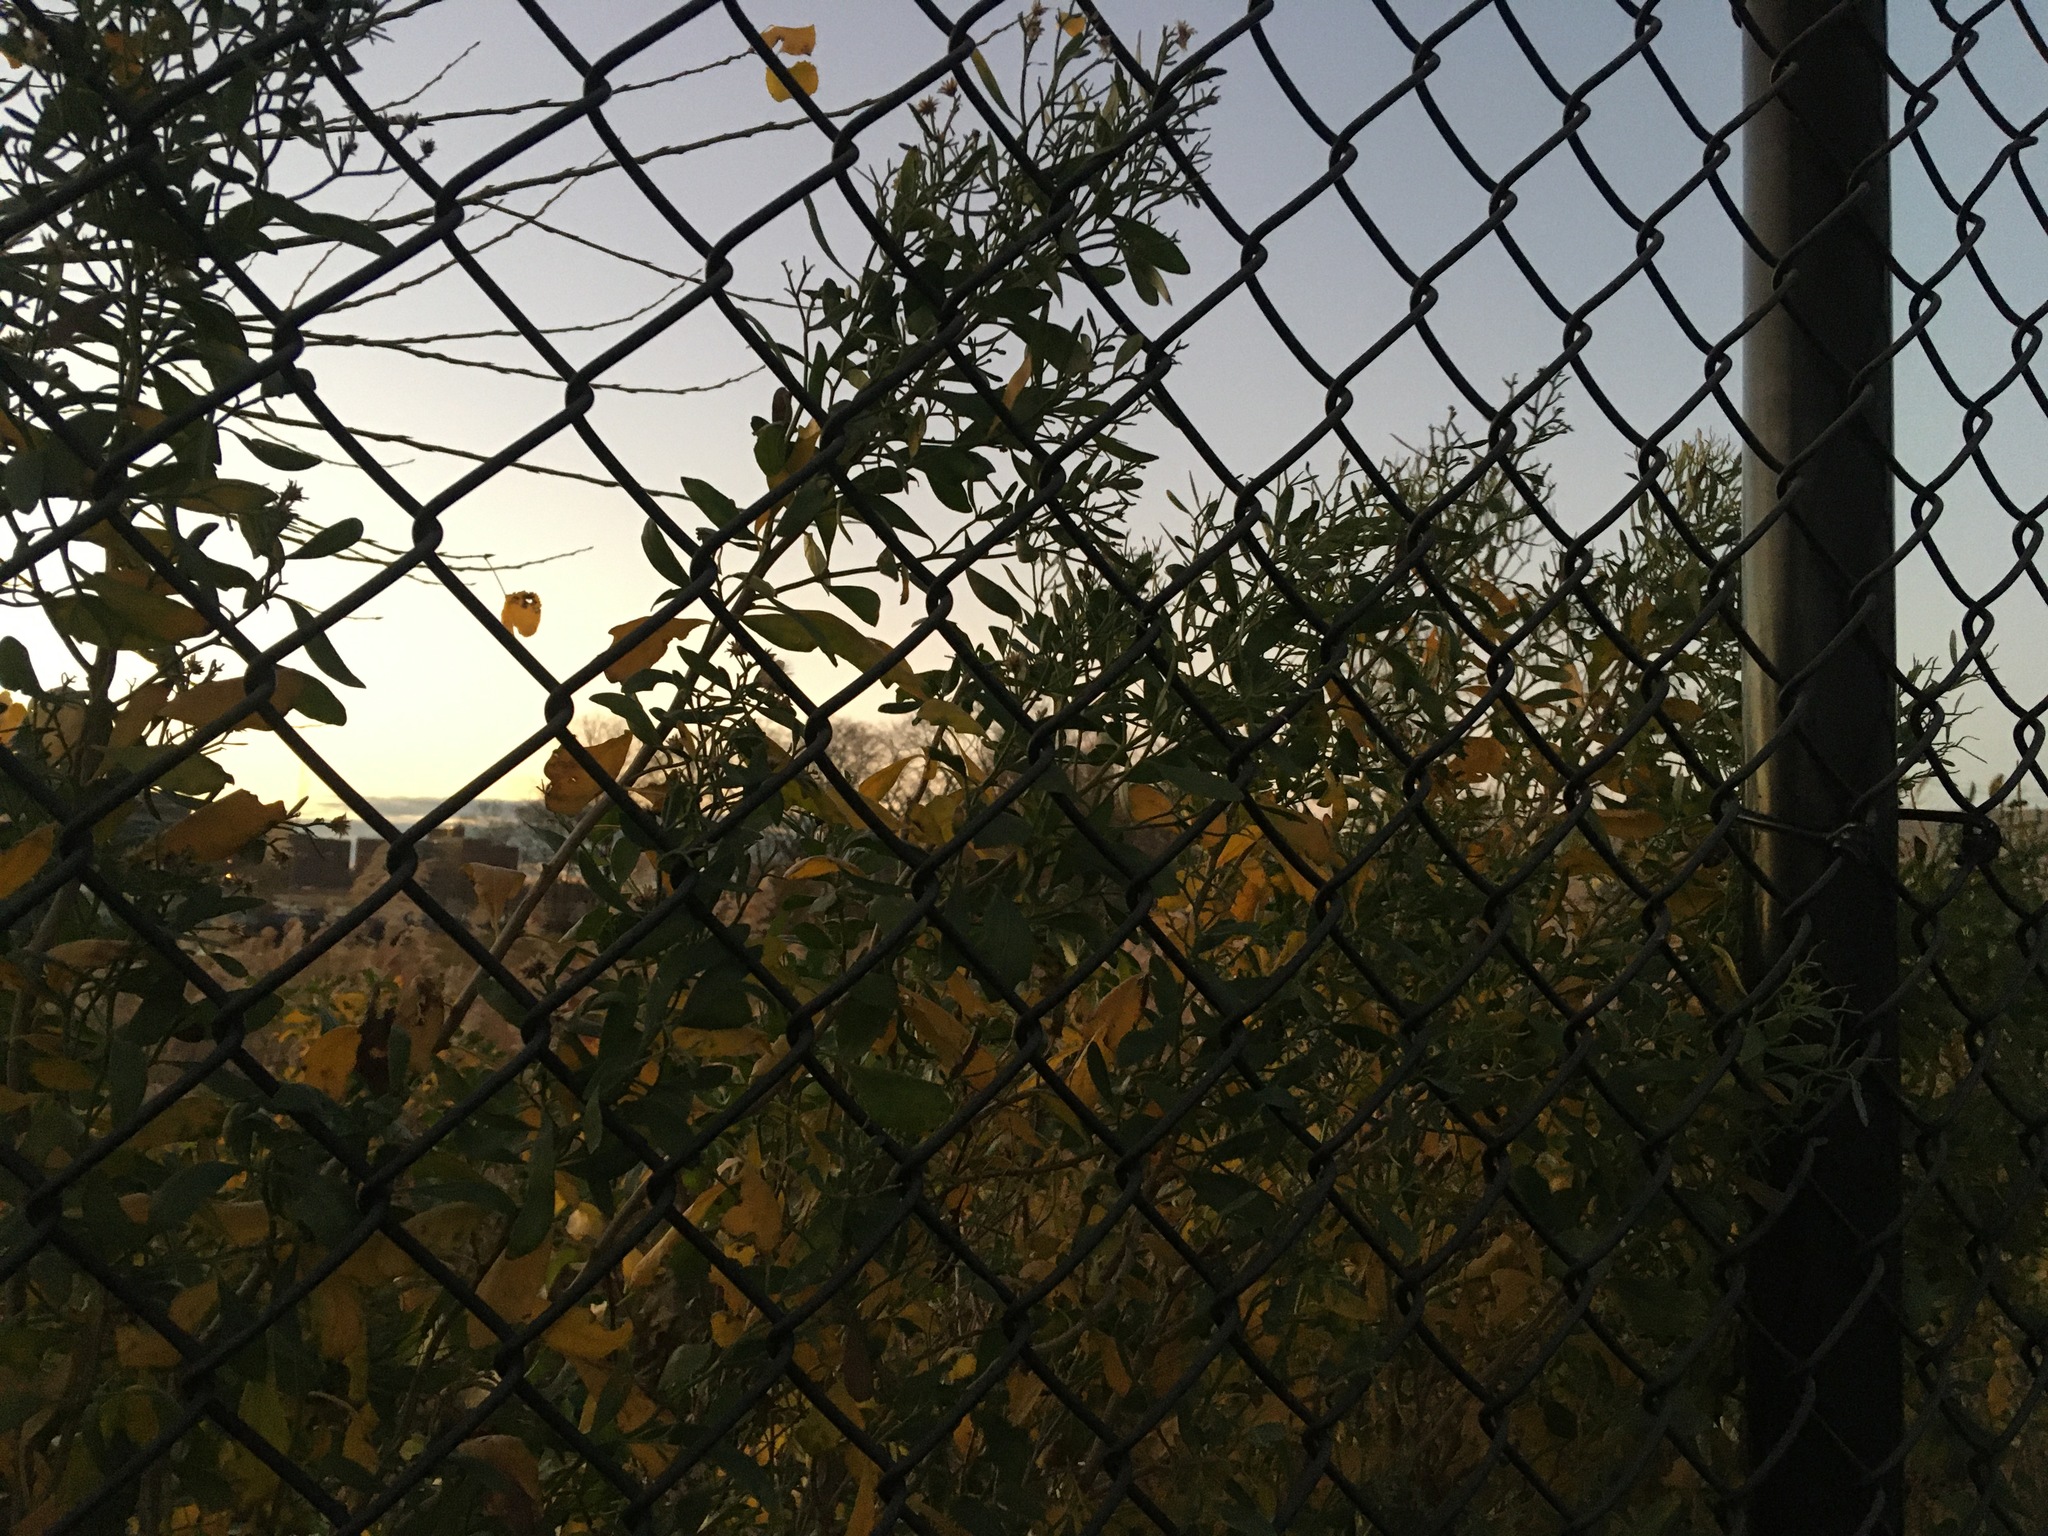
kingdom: Plantae
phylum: Tracheophyta
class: Magnoliopsida
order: Asterales
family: Asteraceae
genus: Baccharis
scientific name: Baccharis halimifolia
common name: Eastern baccharis
